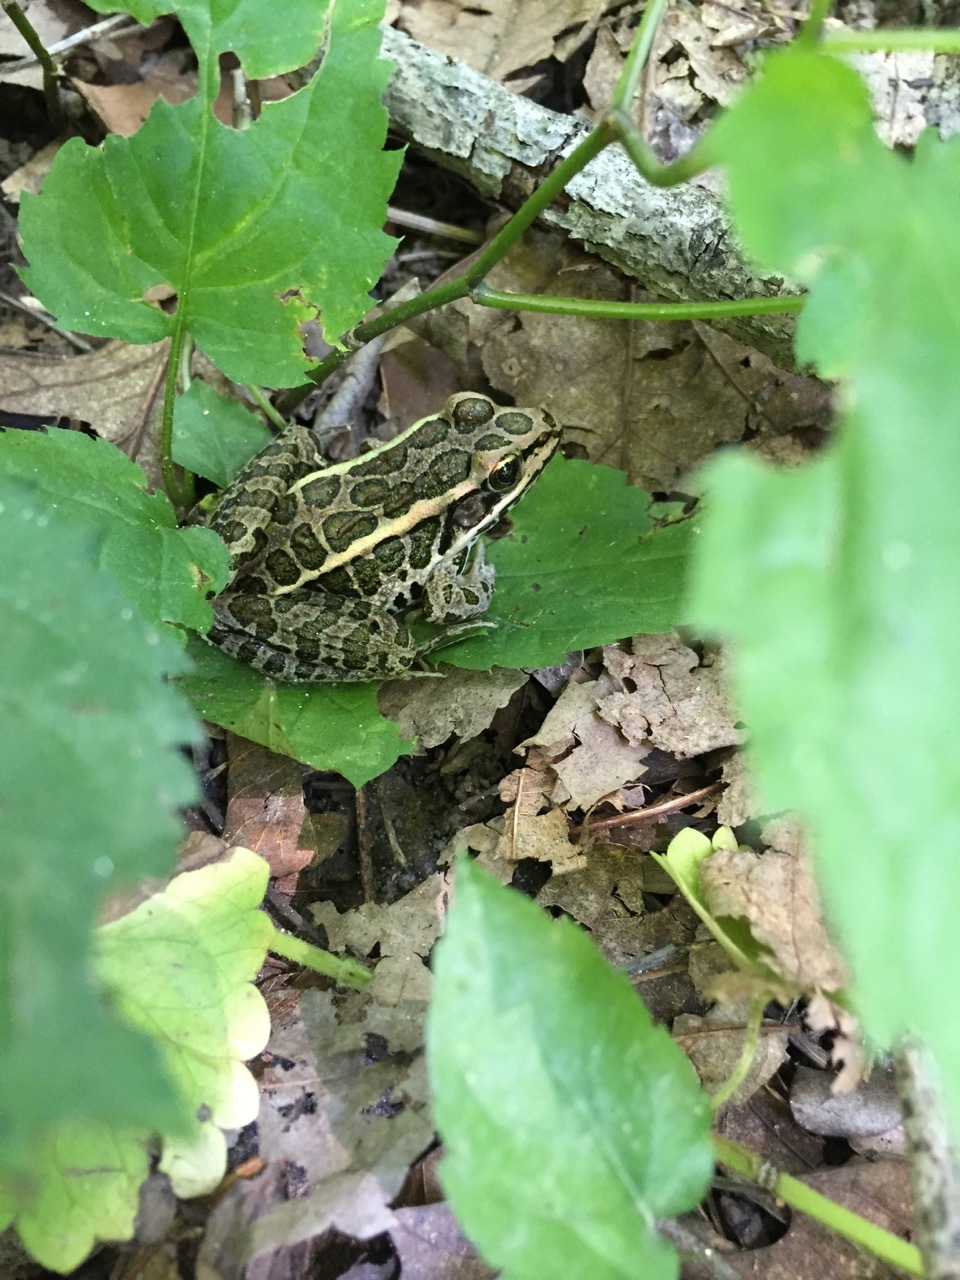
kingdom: Animalia
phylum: Chordata
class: Amphibia
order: Anura
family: Ranidae
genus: Lithobates
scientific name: Lithobates palustris
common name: Pickerel frog
